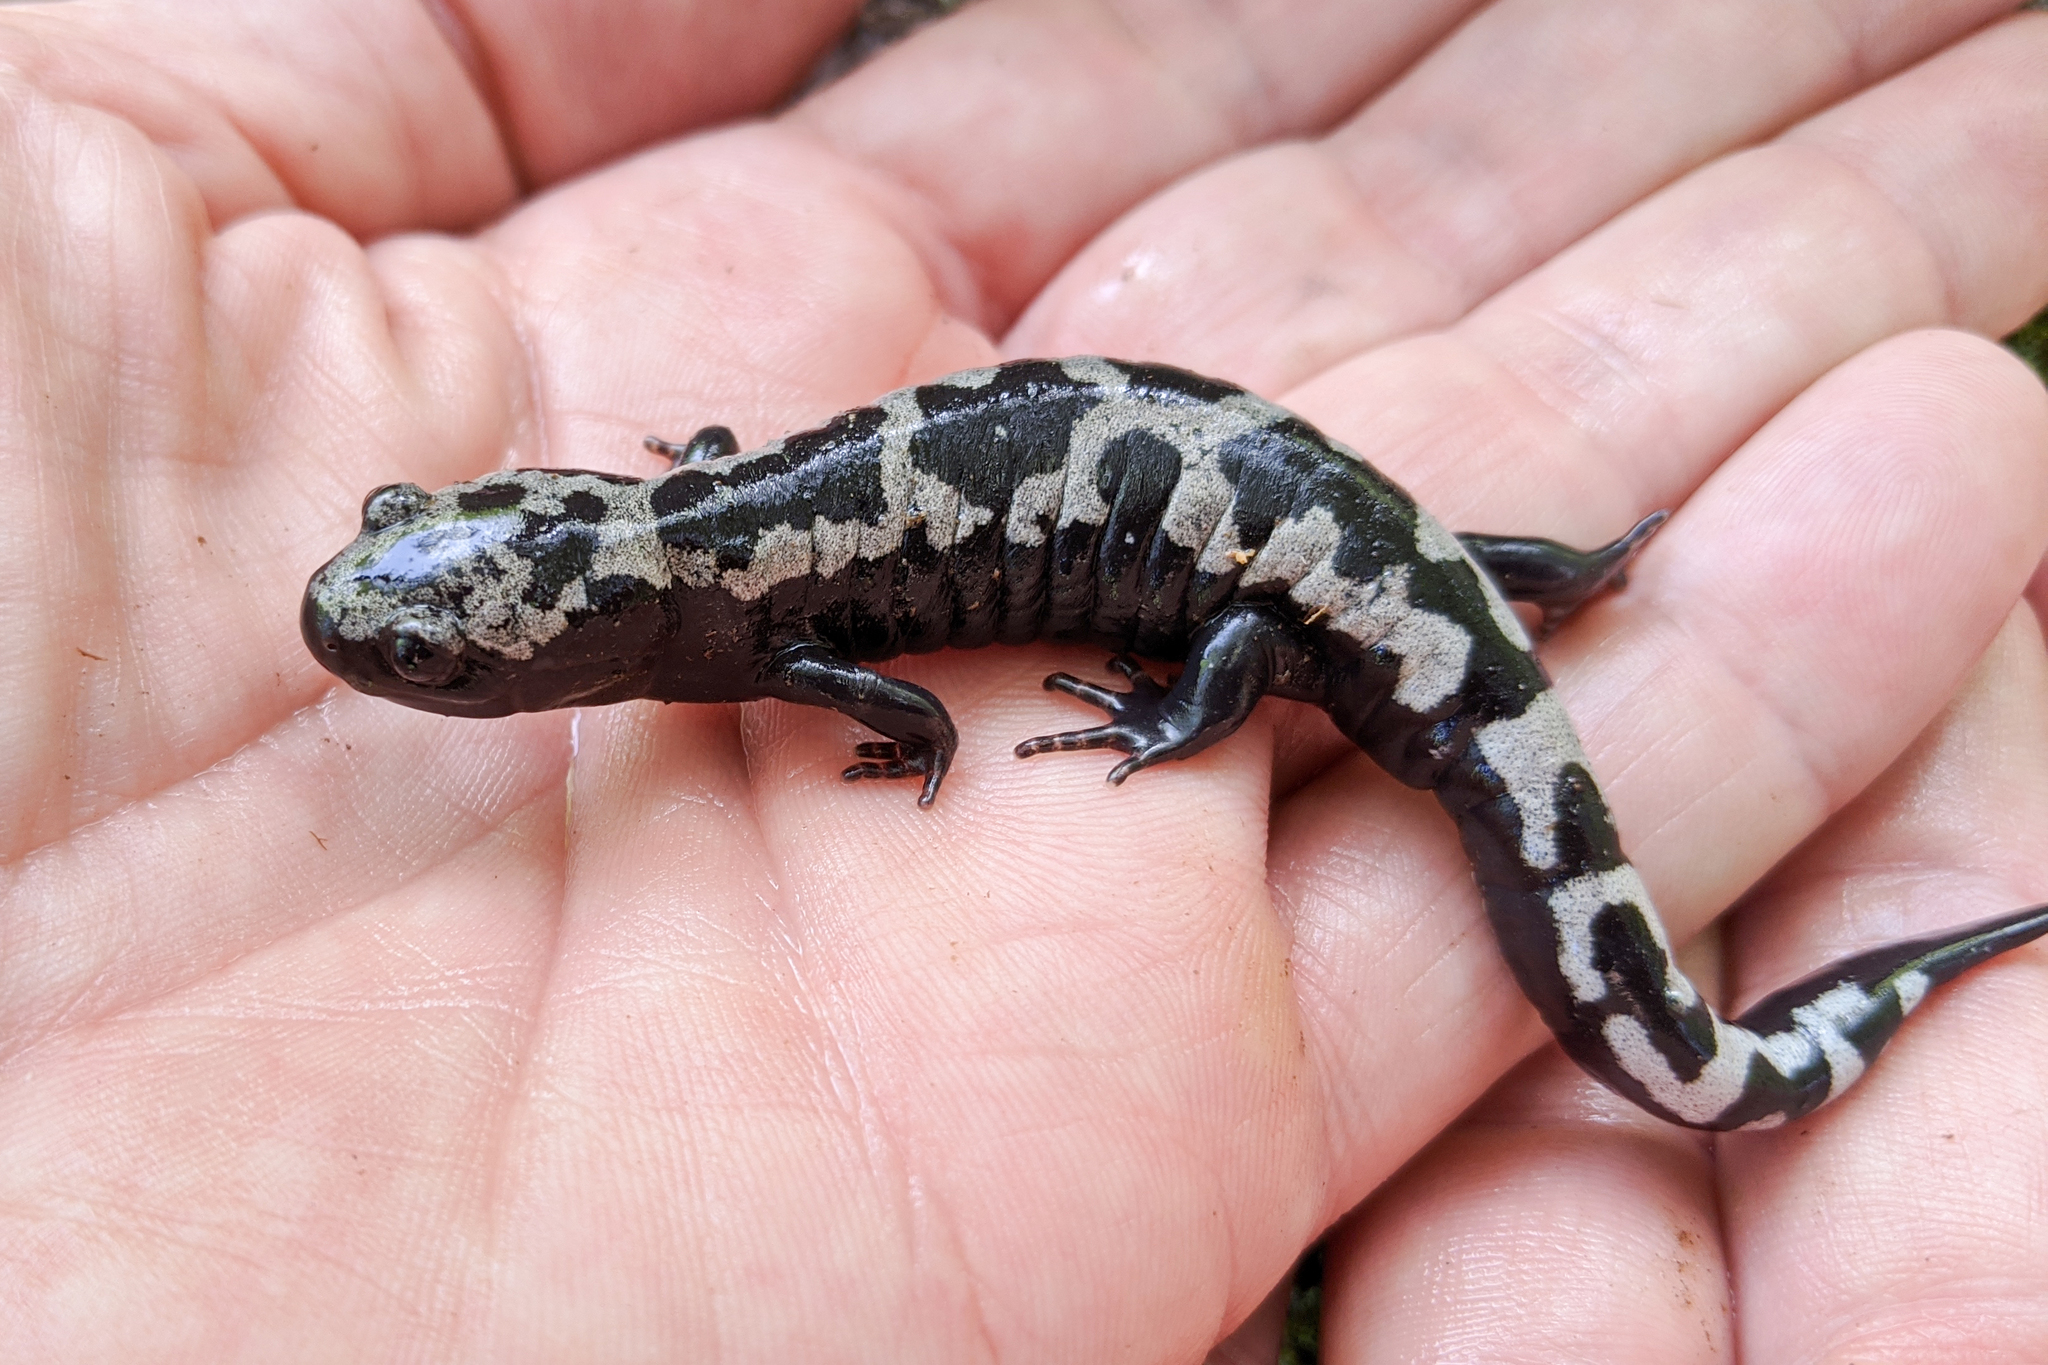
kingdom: Animalia
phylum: Chordata
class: Amphibia
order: Caudata
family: Ambystomatidae
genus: Ambystoma
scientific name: Ambystoma opacum
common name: Marbled salamander
